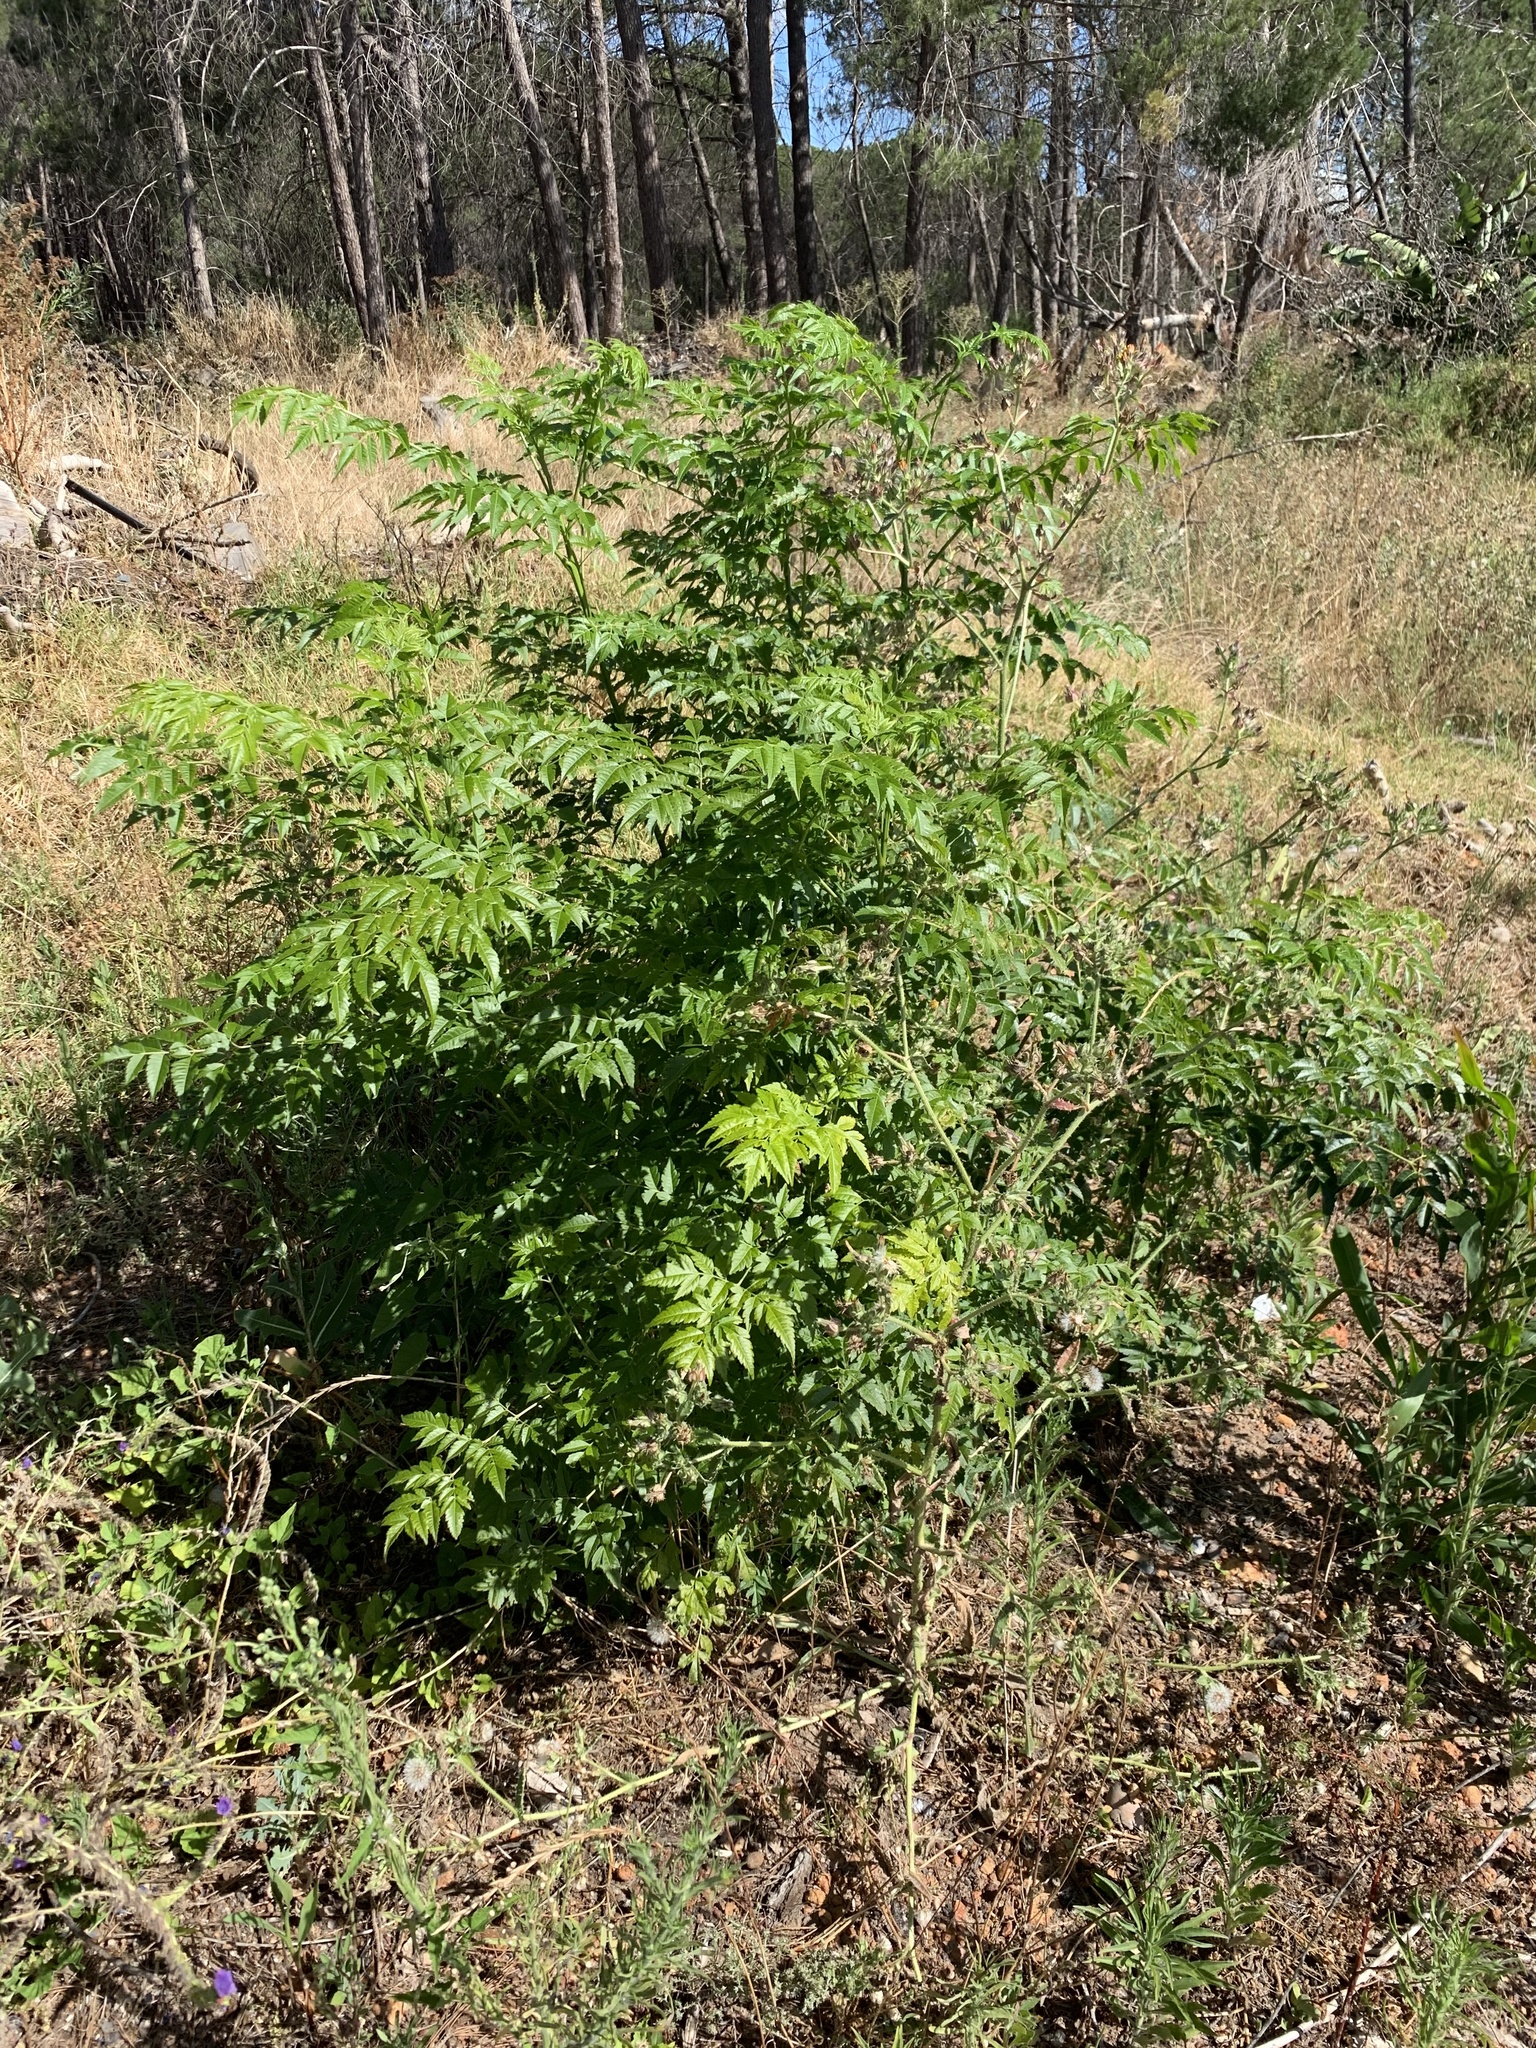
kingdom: Plantae
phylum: Tracheophyta
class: Magnoliopsida
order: Sapindales
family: Meliaceae
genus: Melia
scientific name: Melia azedarach
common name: Chinaberrytree
